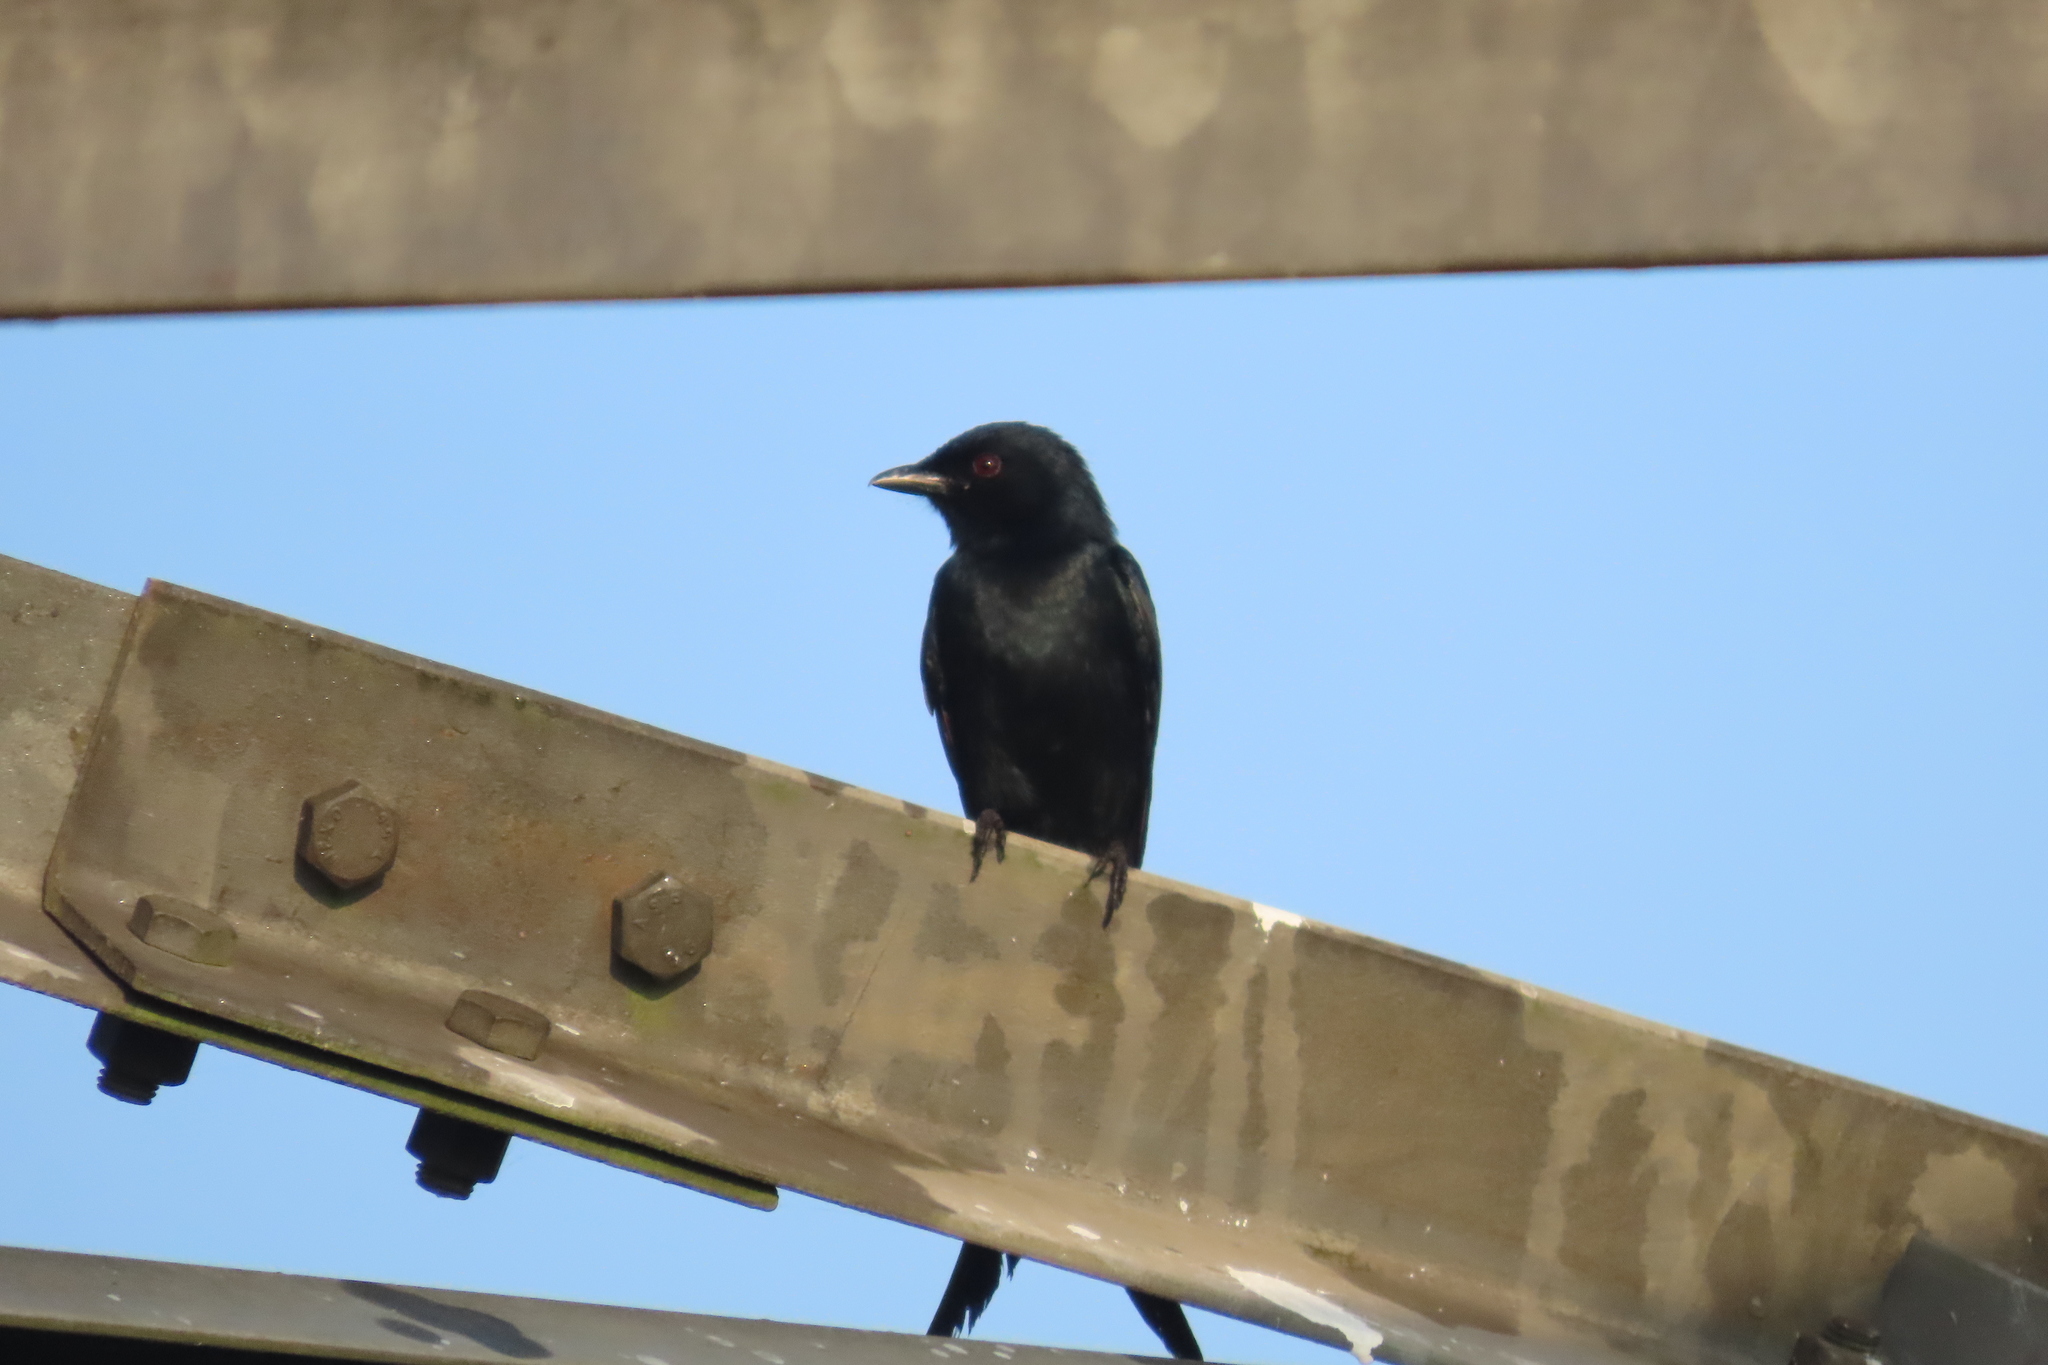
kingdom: Animalia
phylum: Chordata
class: Aves
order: Passeriformes
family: Dicruridae
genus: Dicrurus
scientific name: Dicrurus macrocercus
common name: Black drongo
